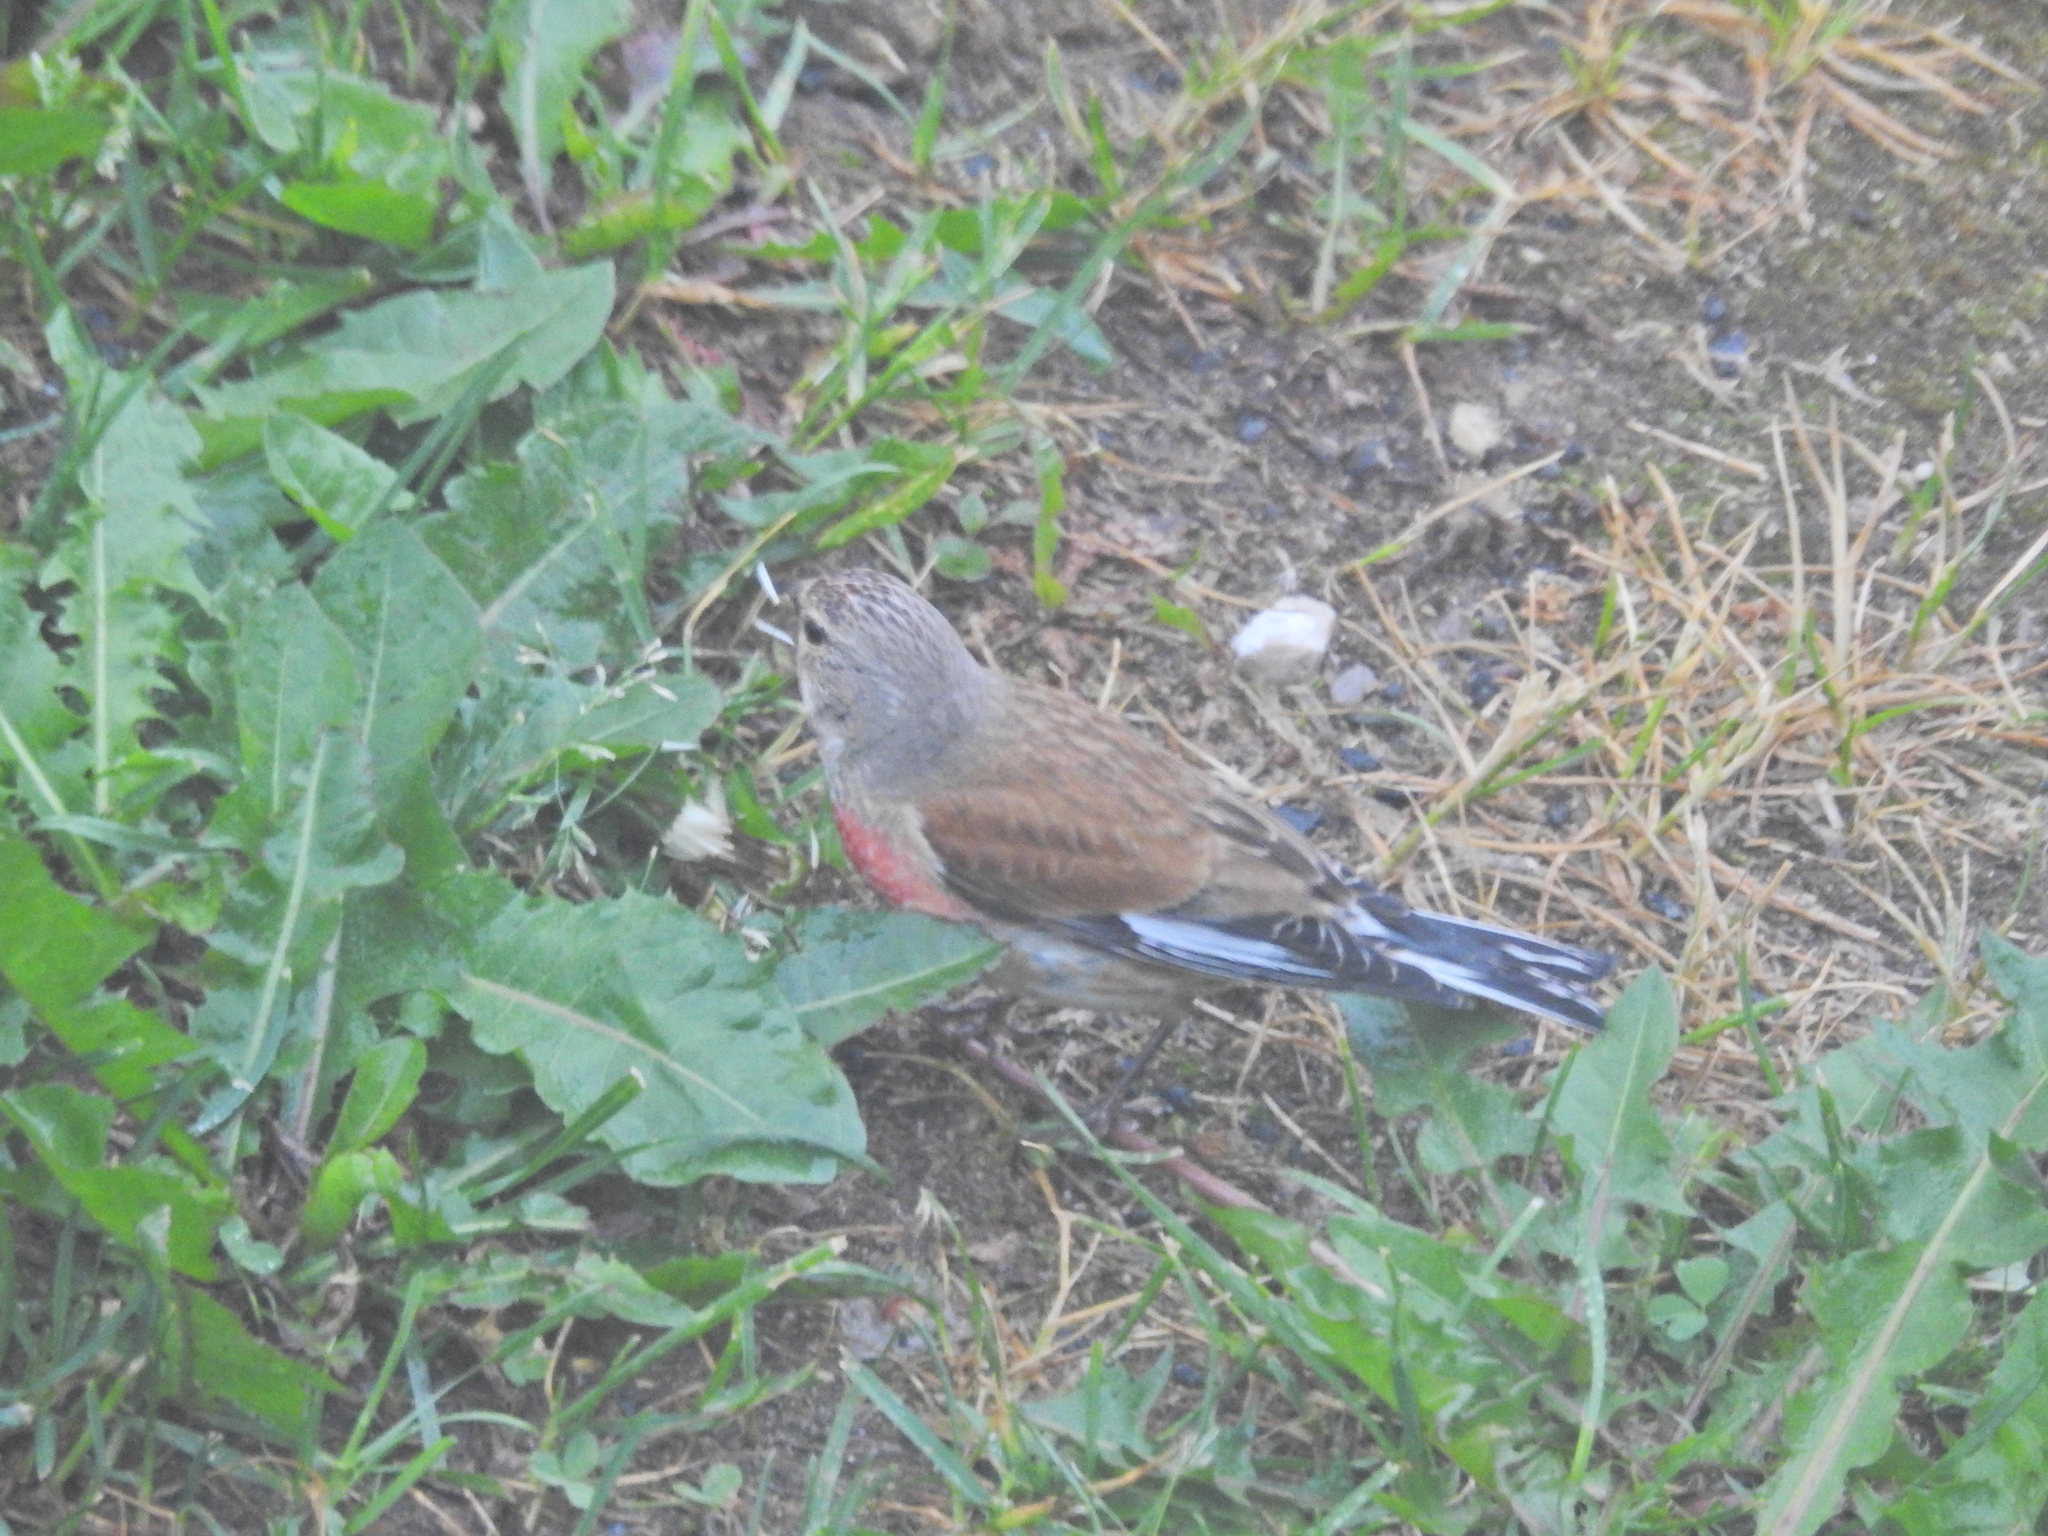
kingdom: Animalia
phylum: Chordata
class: Aves
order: Passeriformes
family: Fringillidae
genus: Linaria
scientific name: Linaria cannabina
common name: Common linnet
